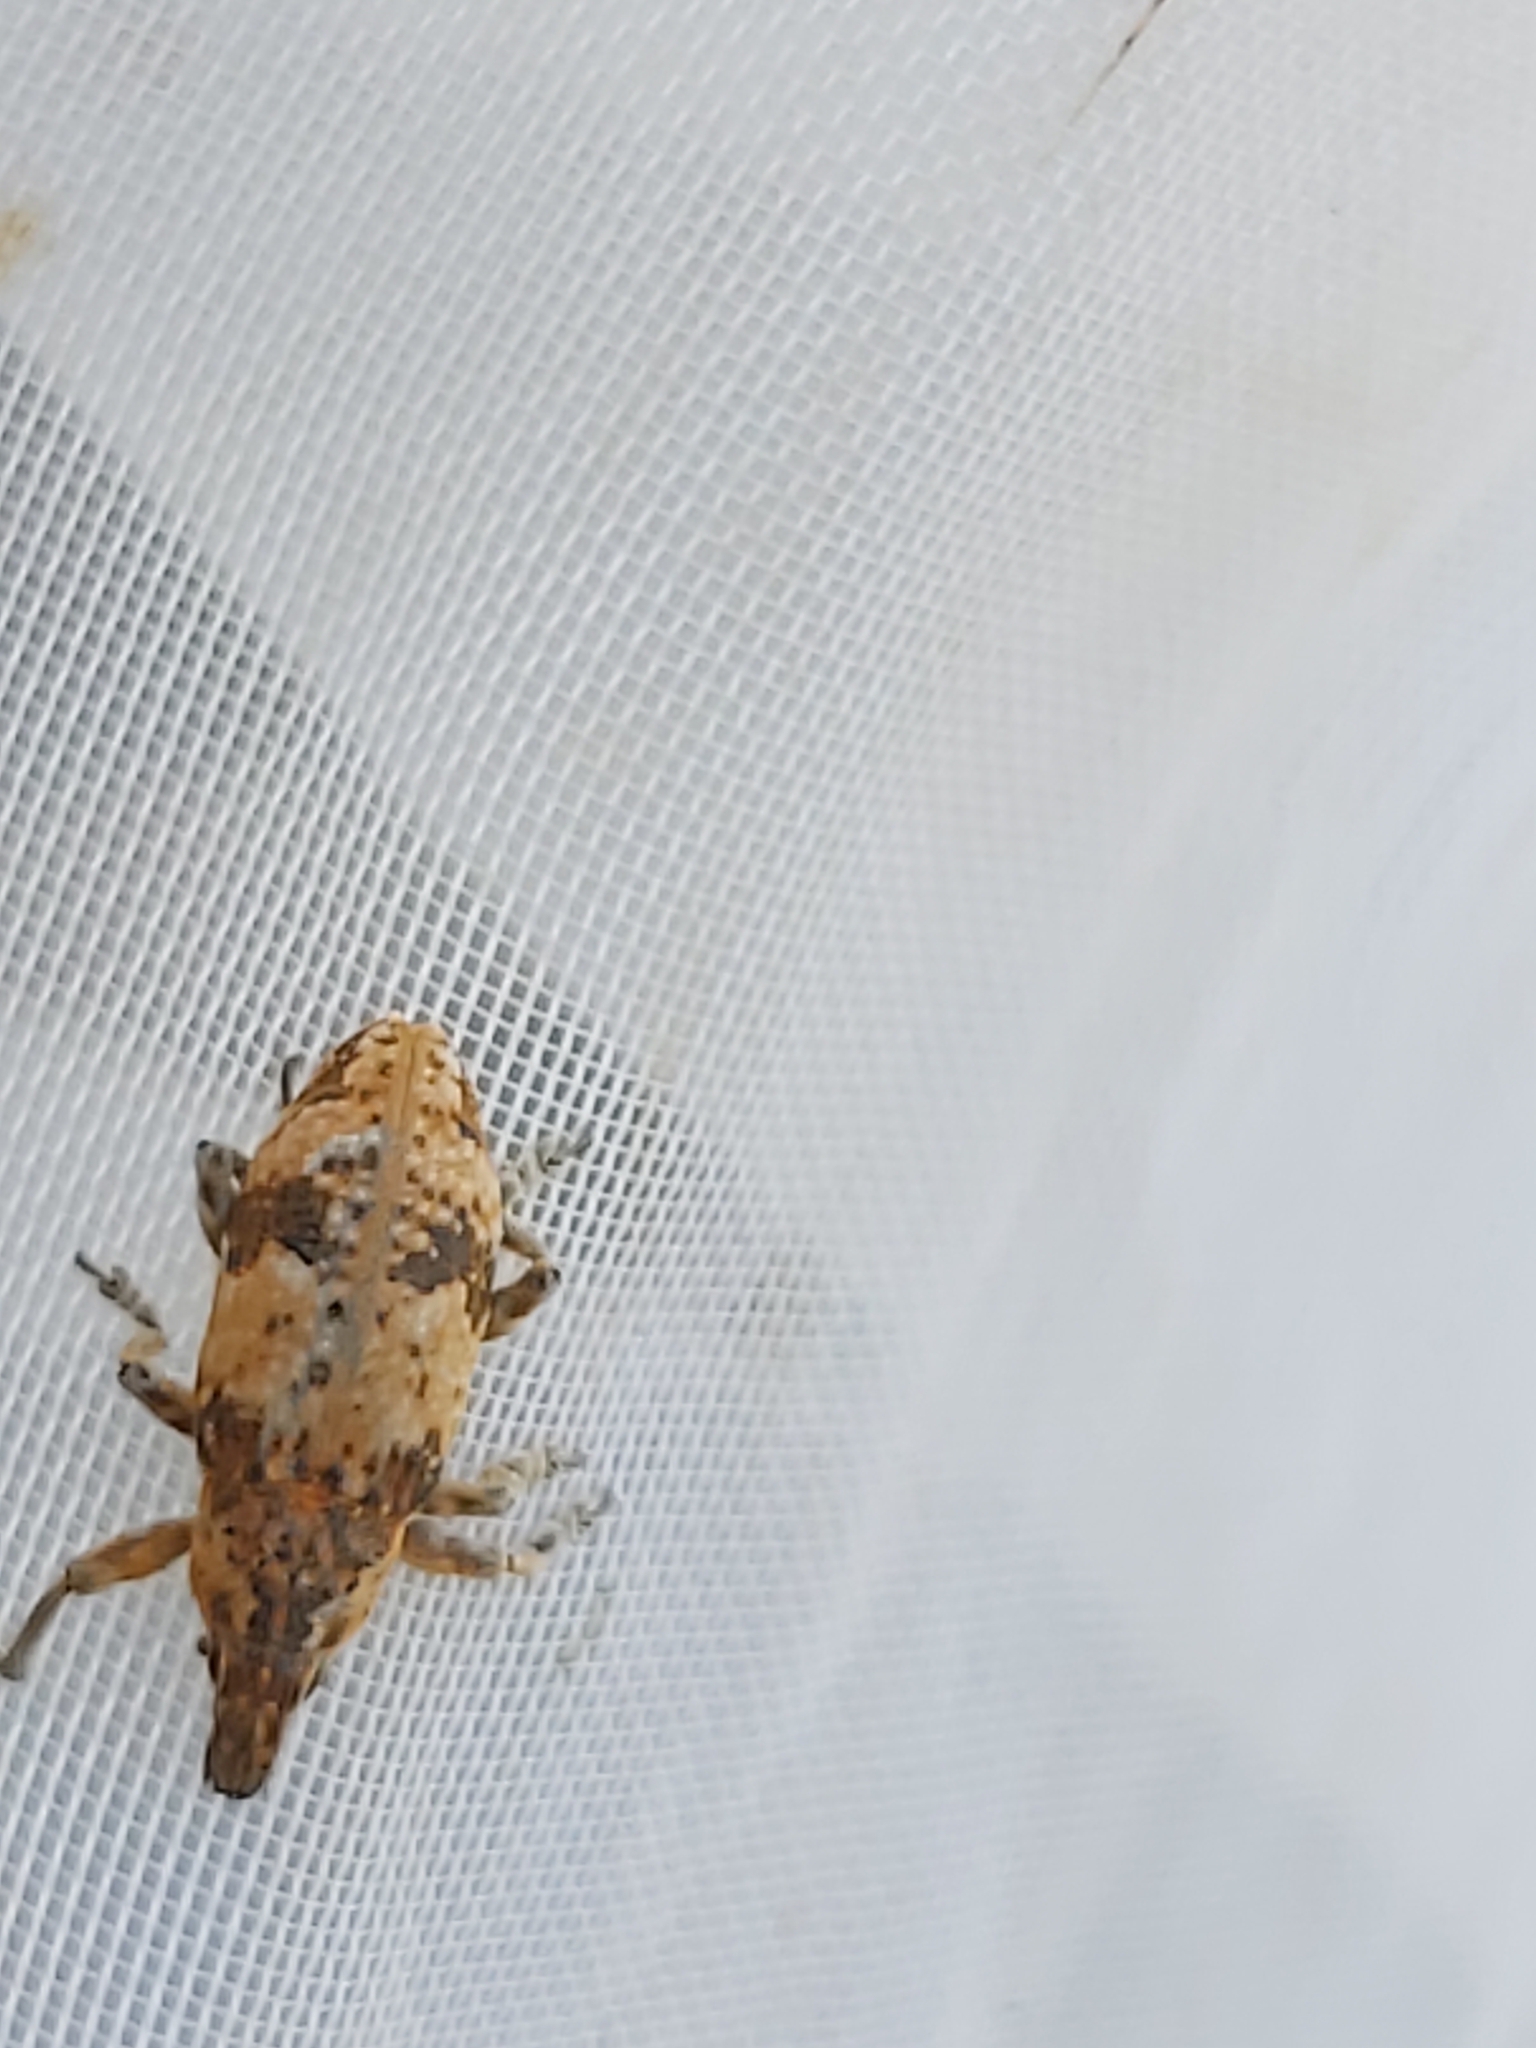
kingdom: Animalia
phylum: Arthropoda
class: Insecta
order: Coleoptera
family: Curculionidae
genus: Bothynoderes
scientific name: Bothynoderes affinis
